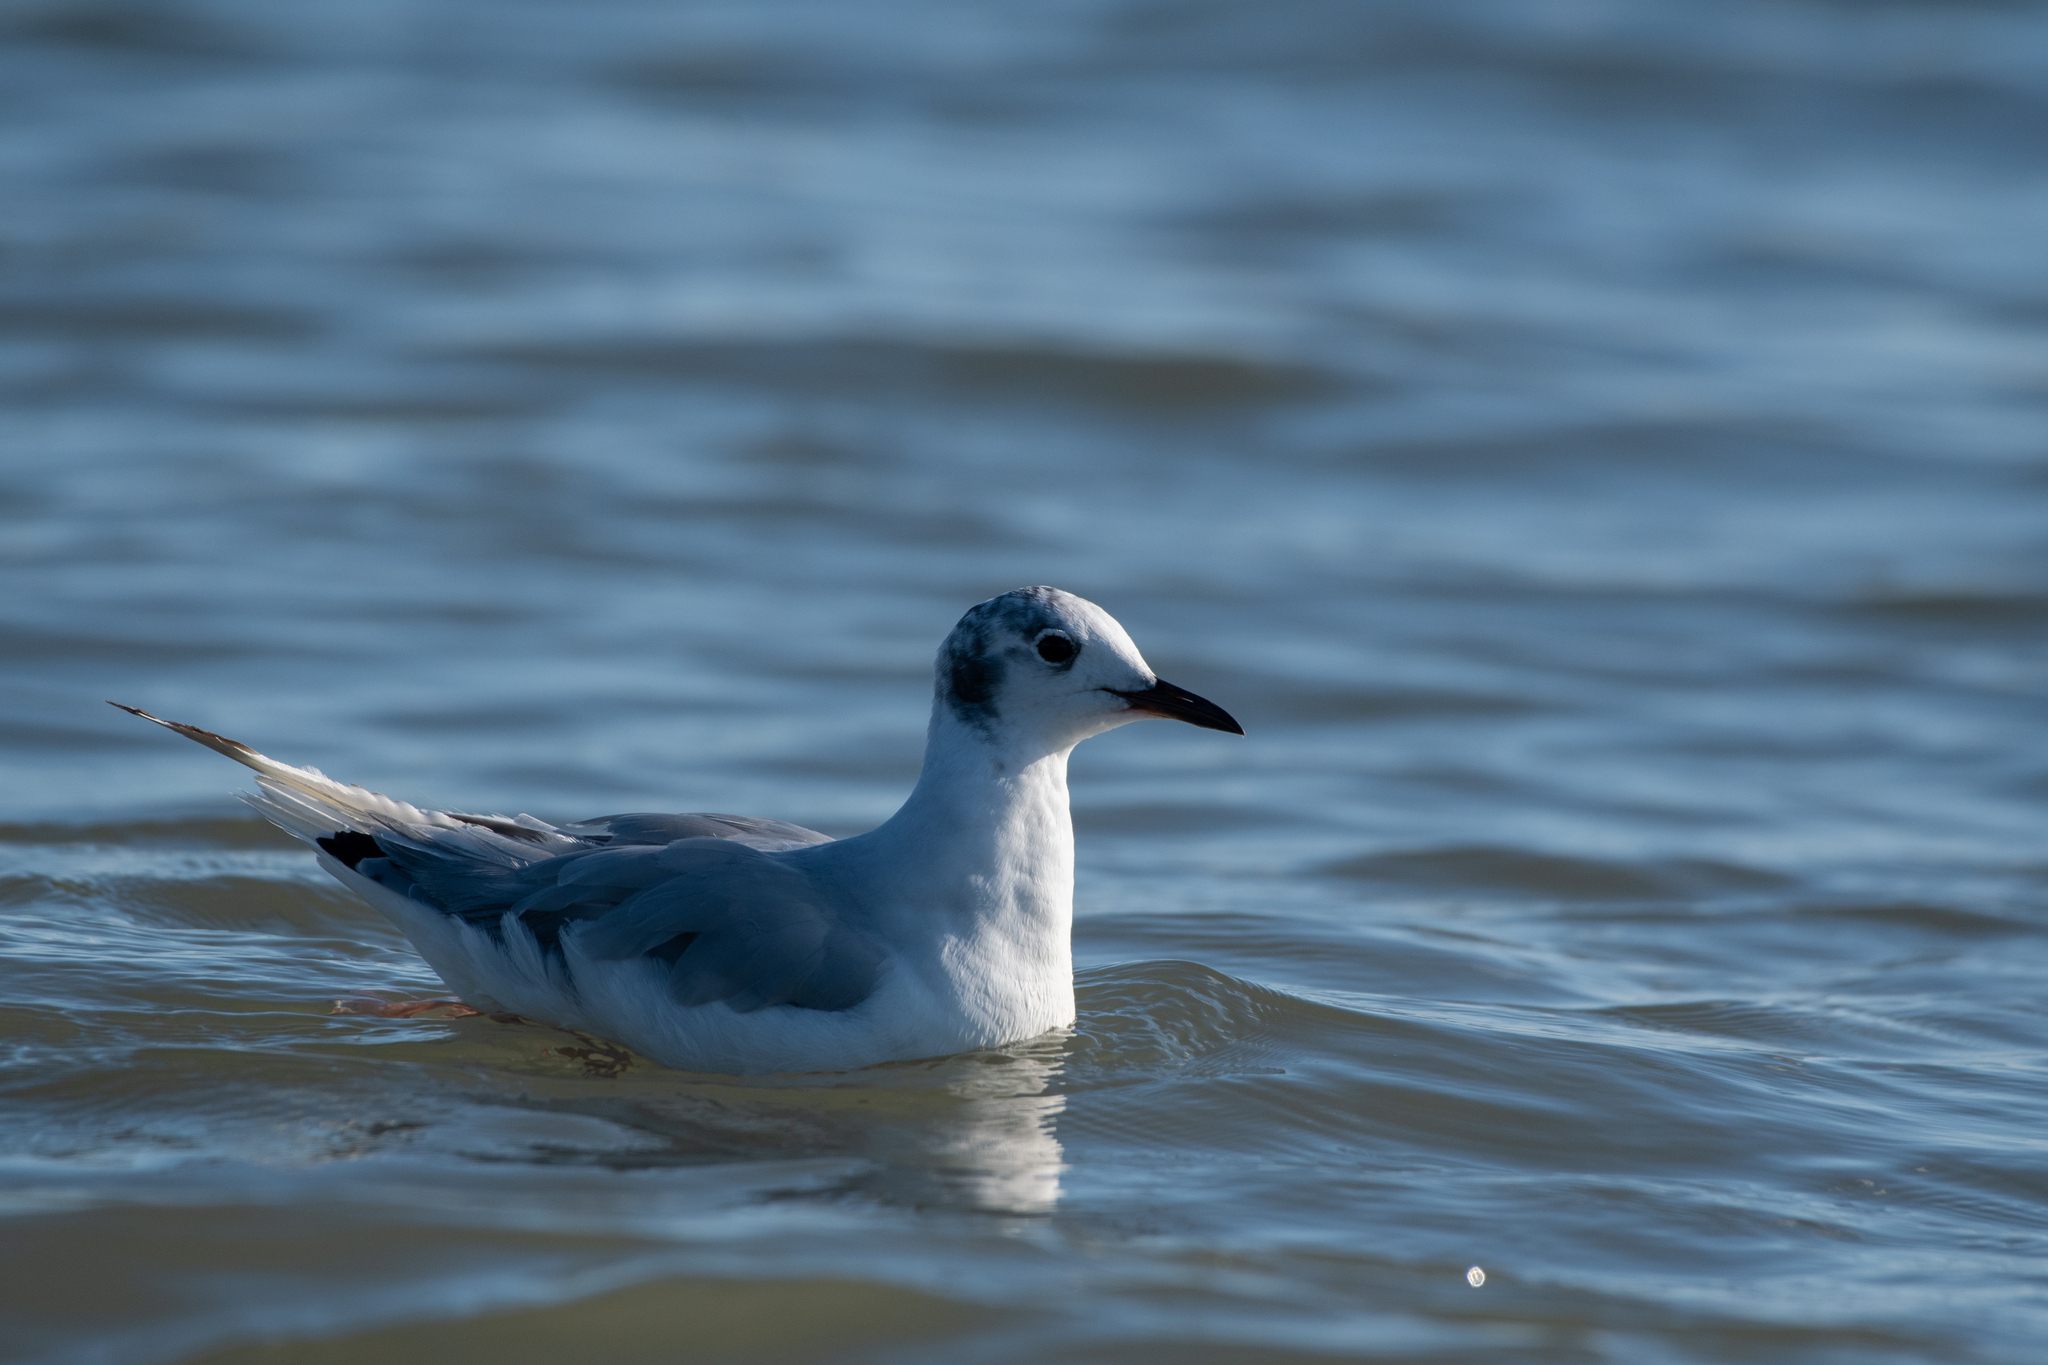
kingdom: Animalia
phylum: Chordata
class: Aves
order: Charadriiformes
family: Laridae
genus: Chroicocephalus
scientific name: Chroicocephalus philadelphia
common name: Bonaparte's gull
